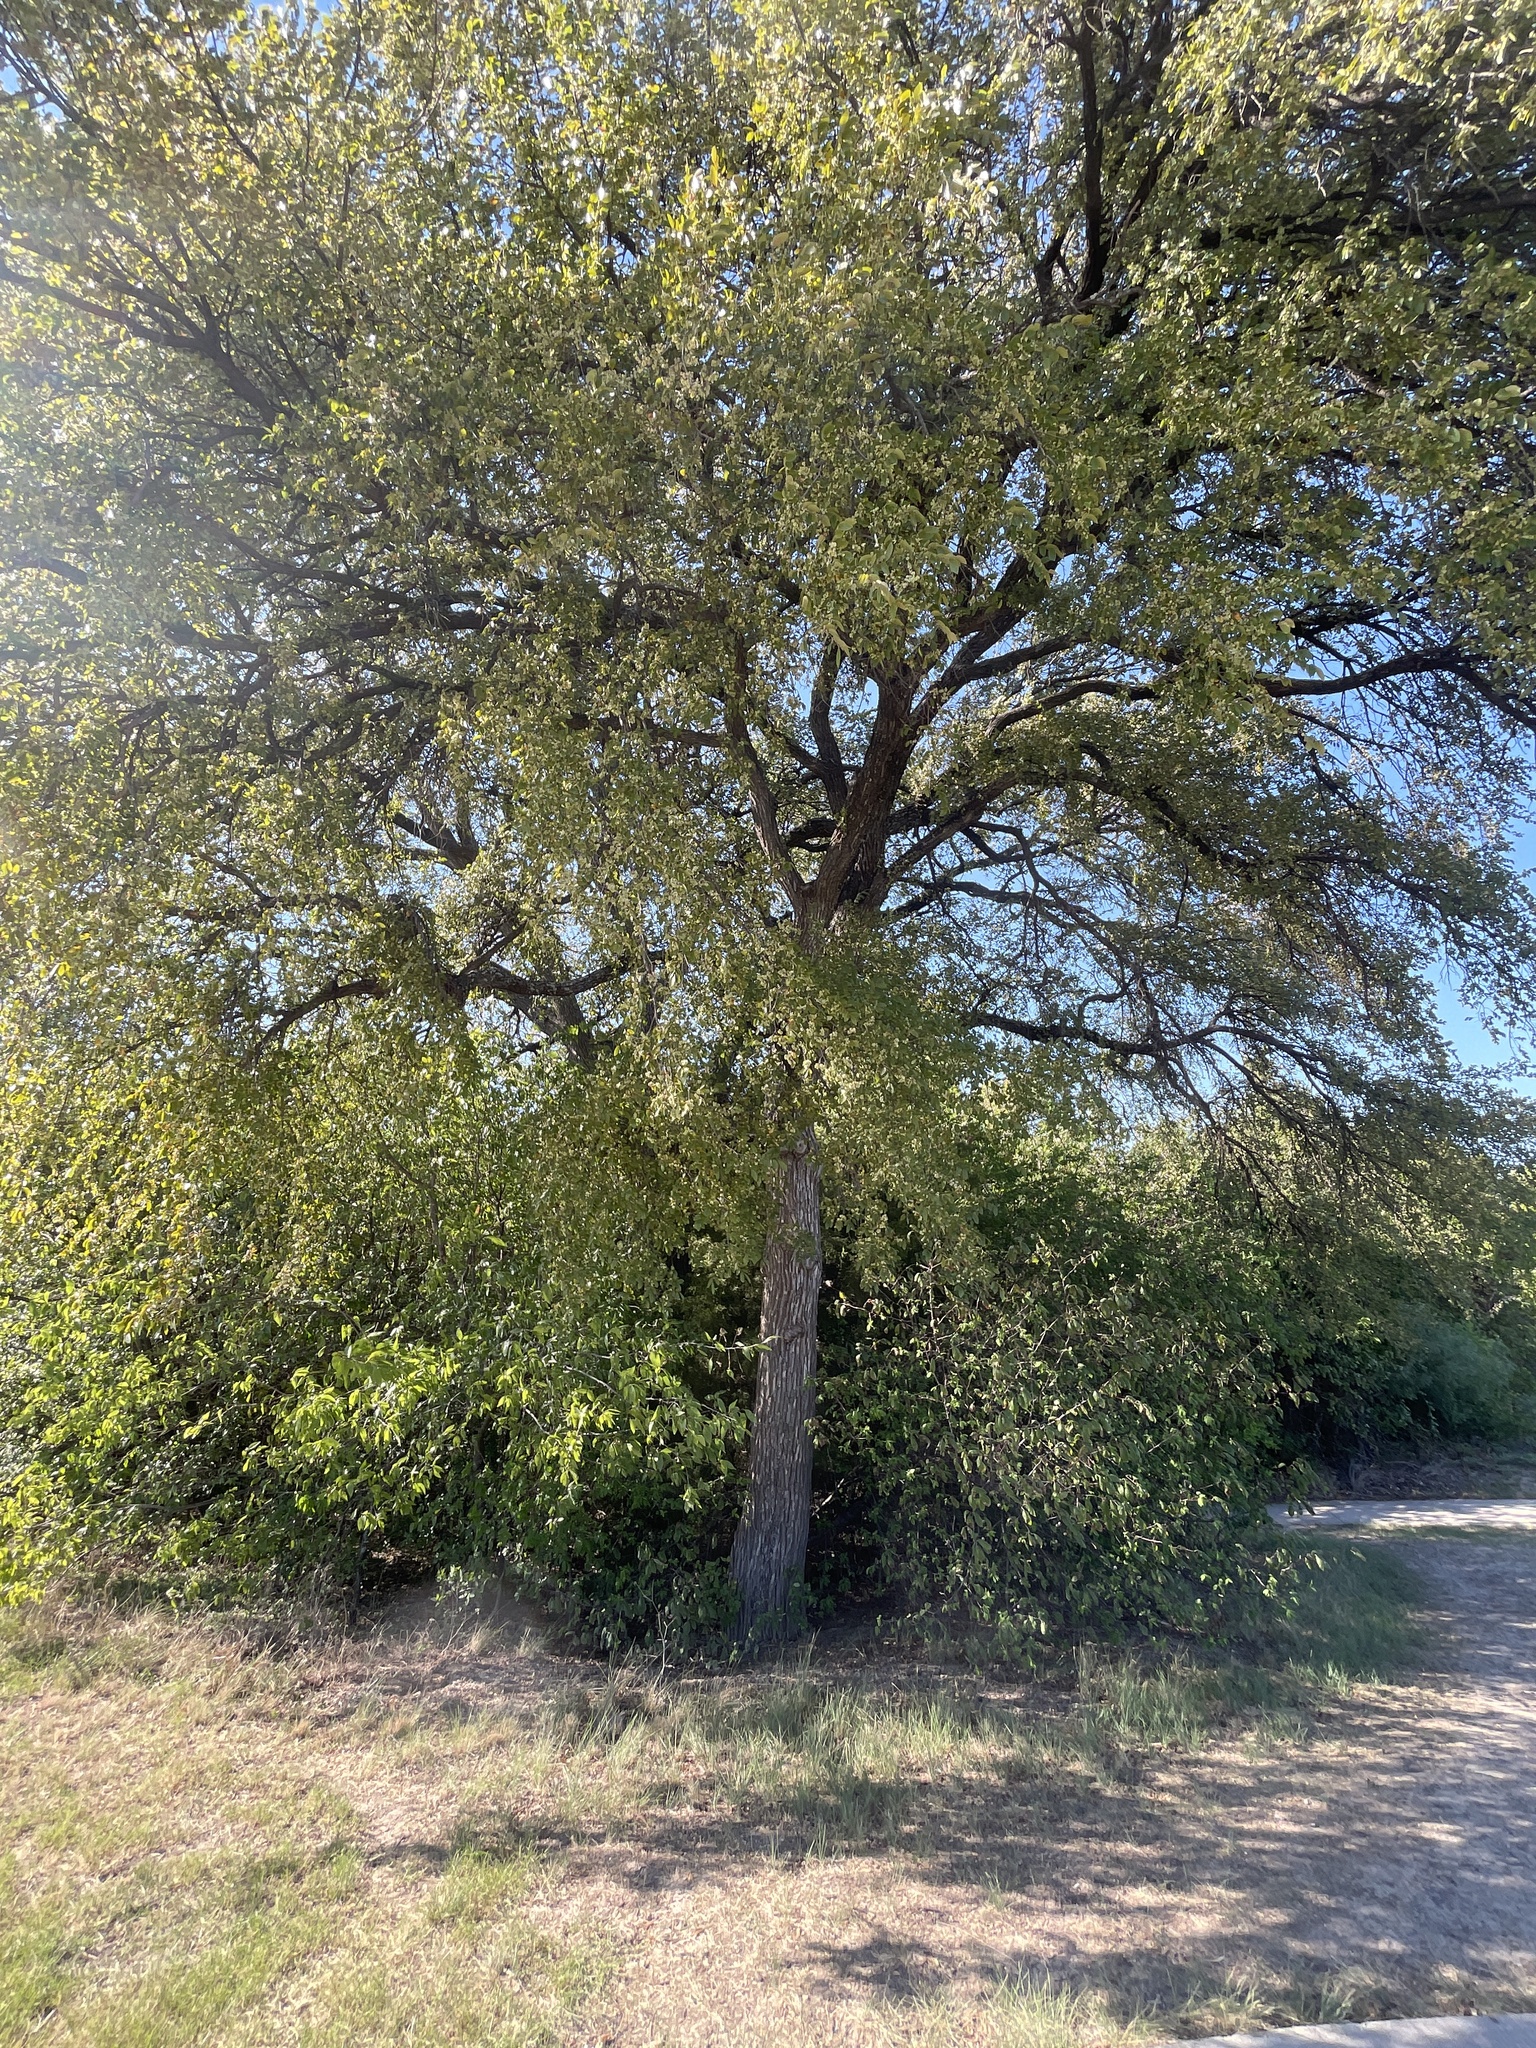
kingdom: Plantae
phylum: Tracheophyta
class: Magnoliopsida
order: Rosales
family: Ulmaceae
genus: Ulmus
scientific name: Ulmus crassifolia
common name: Basket elm
